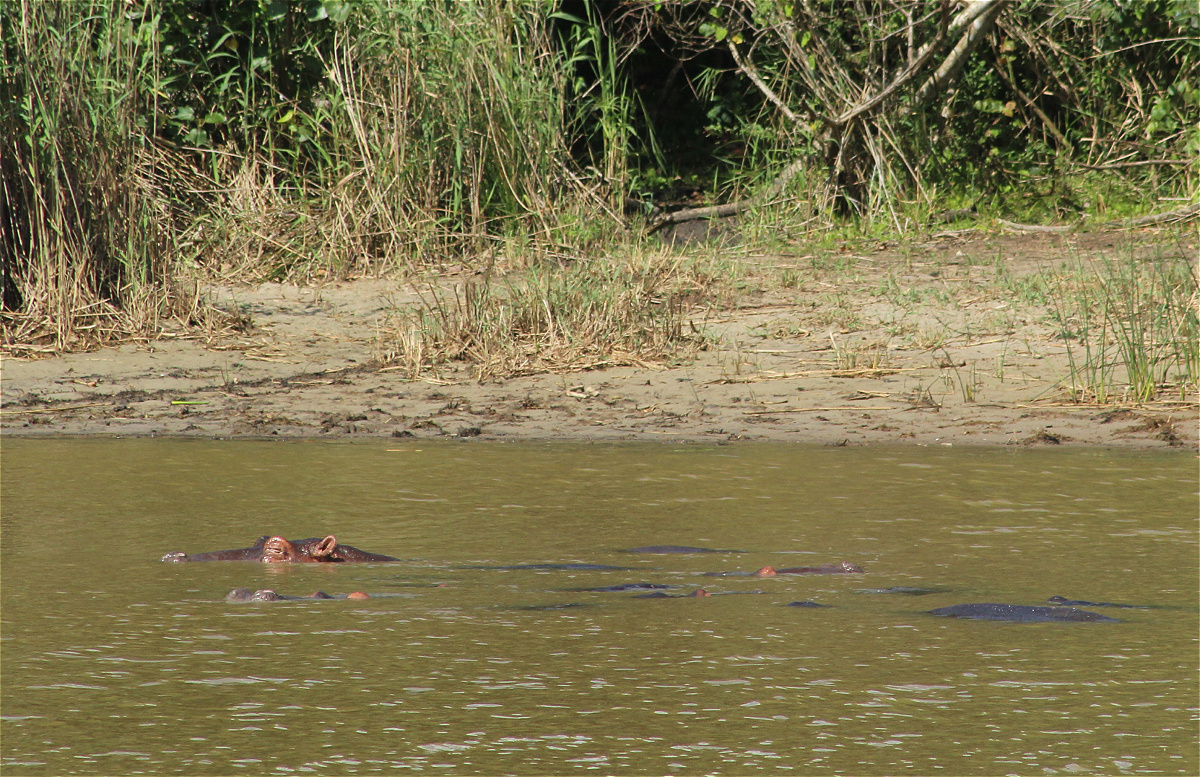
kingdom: Animalia
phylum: Chordata
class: Mammalia
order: Artiodactyla
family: Hippopotamidae
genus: Hippopotamus
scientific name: Hippopotamus amphibius
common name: Common hippopotamus
